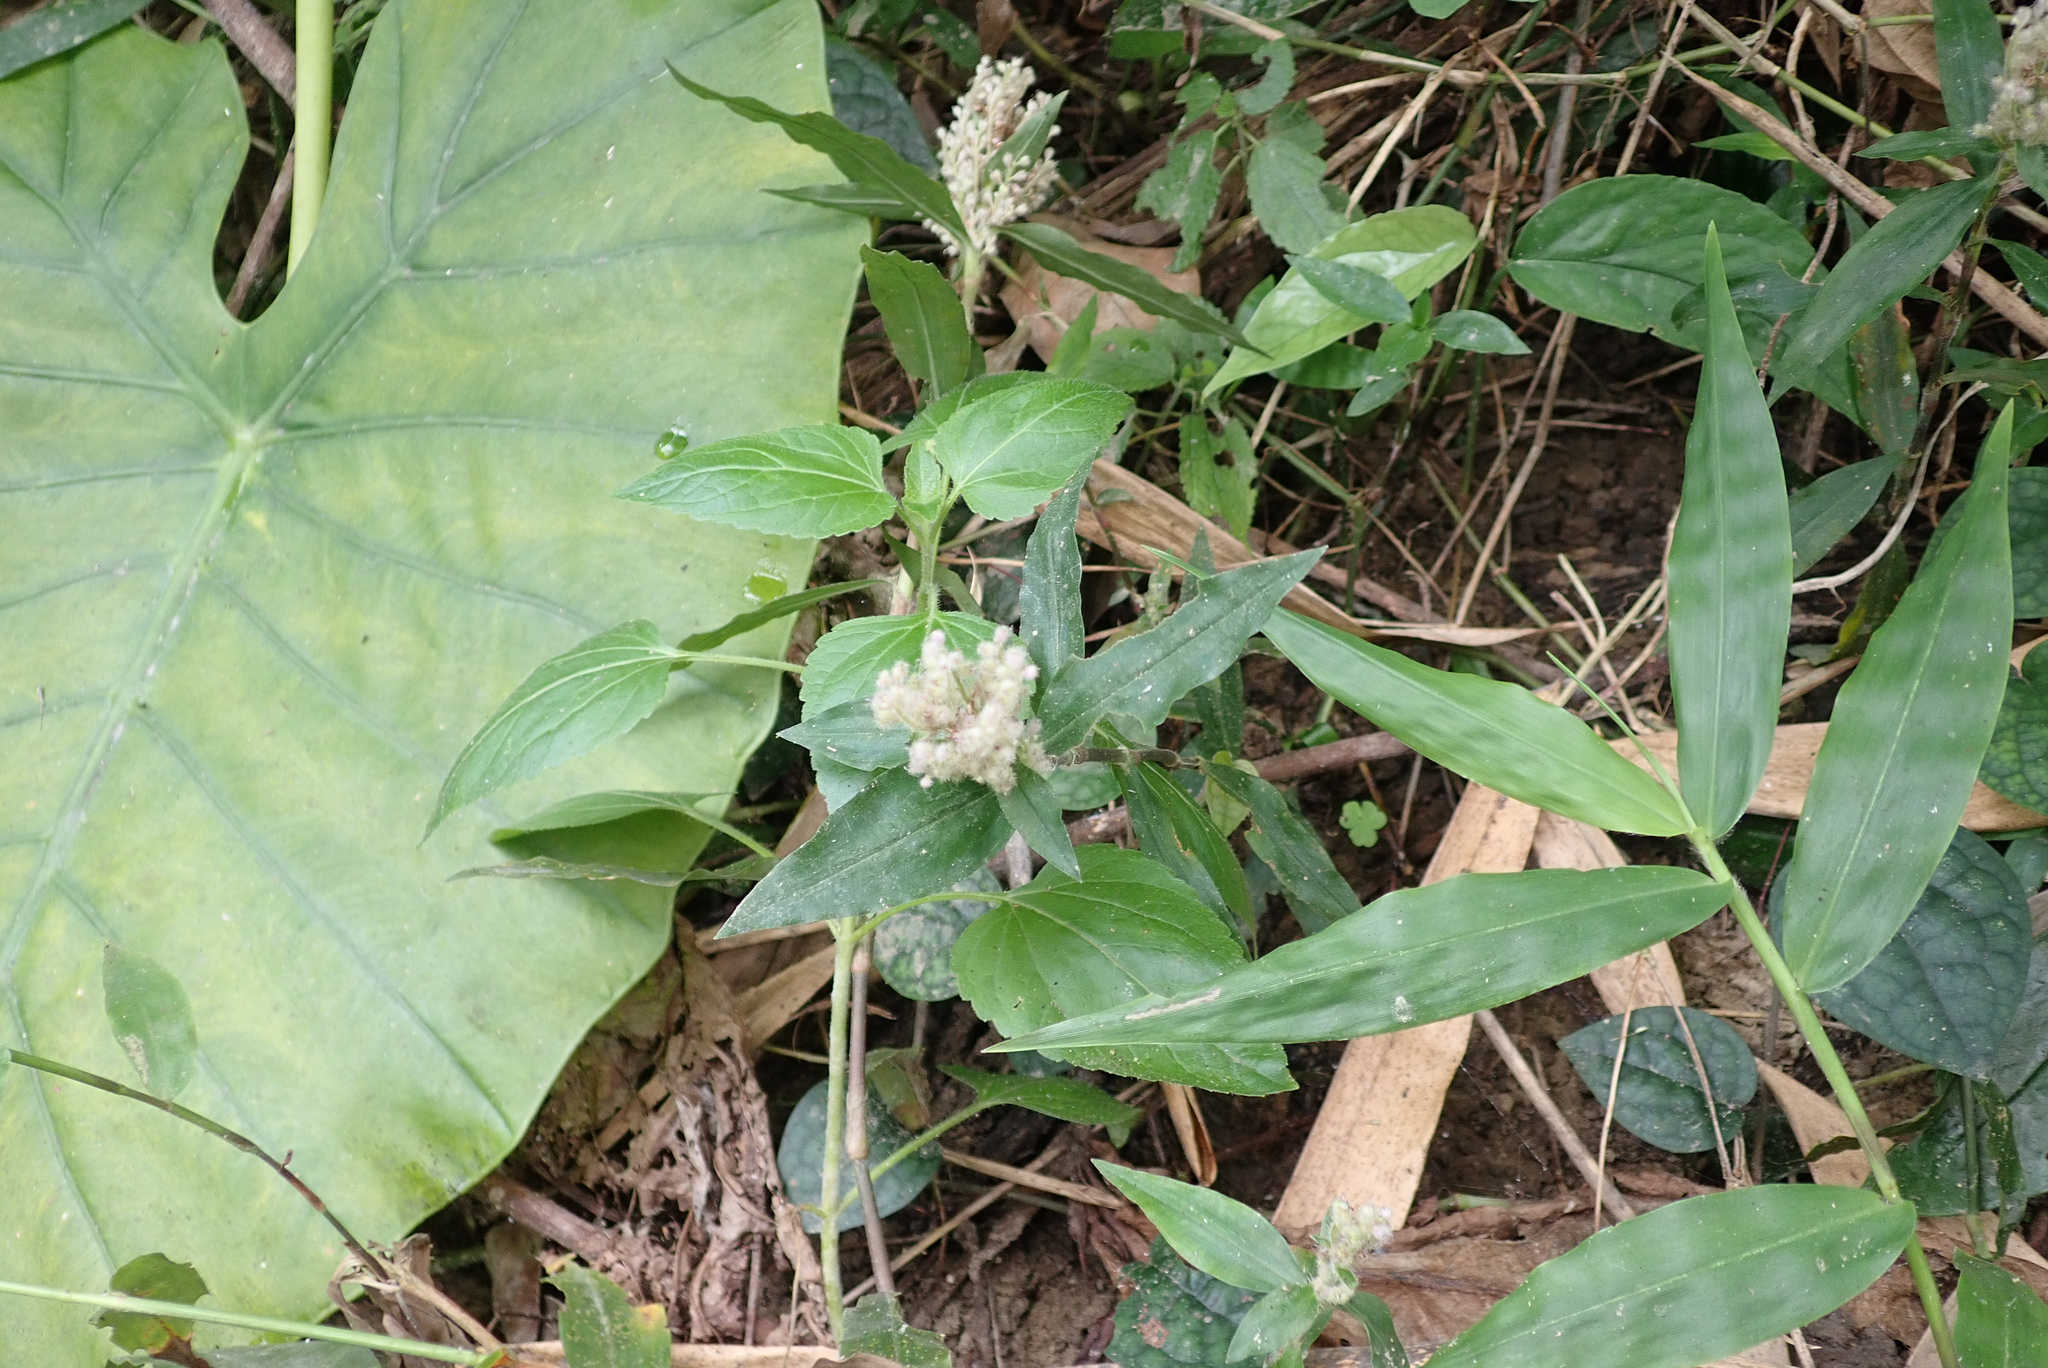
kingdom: Plantae
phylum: Tracheophyta
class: Liliopsida
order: Commelinales
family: Commelinaceae
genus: Floscopa
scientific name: Floscopa scandens
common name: Climbing flower cup
